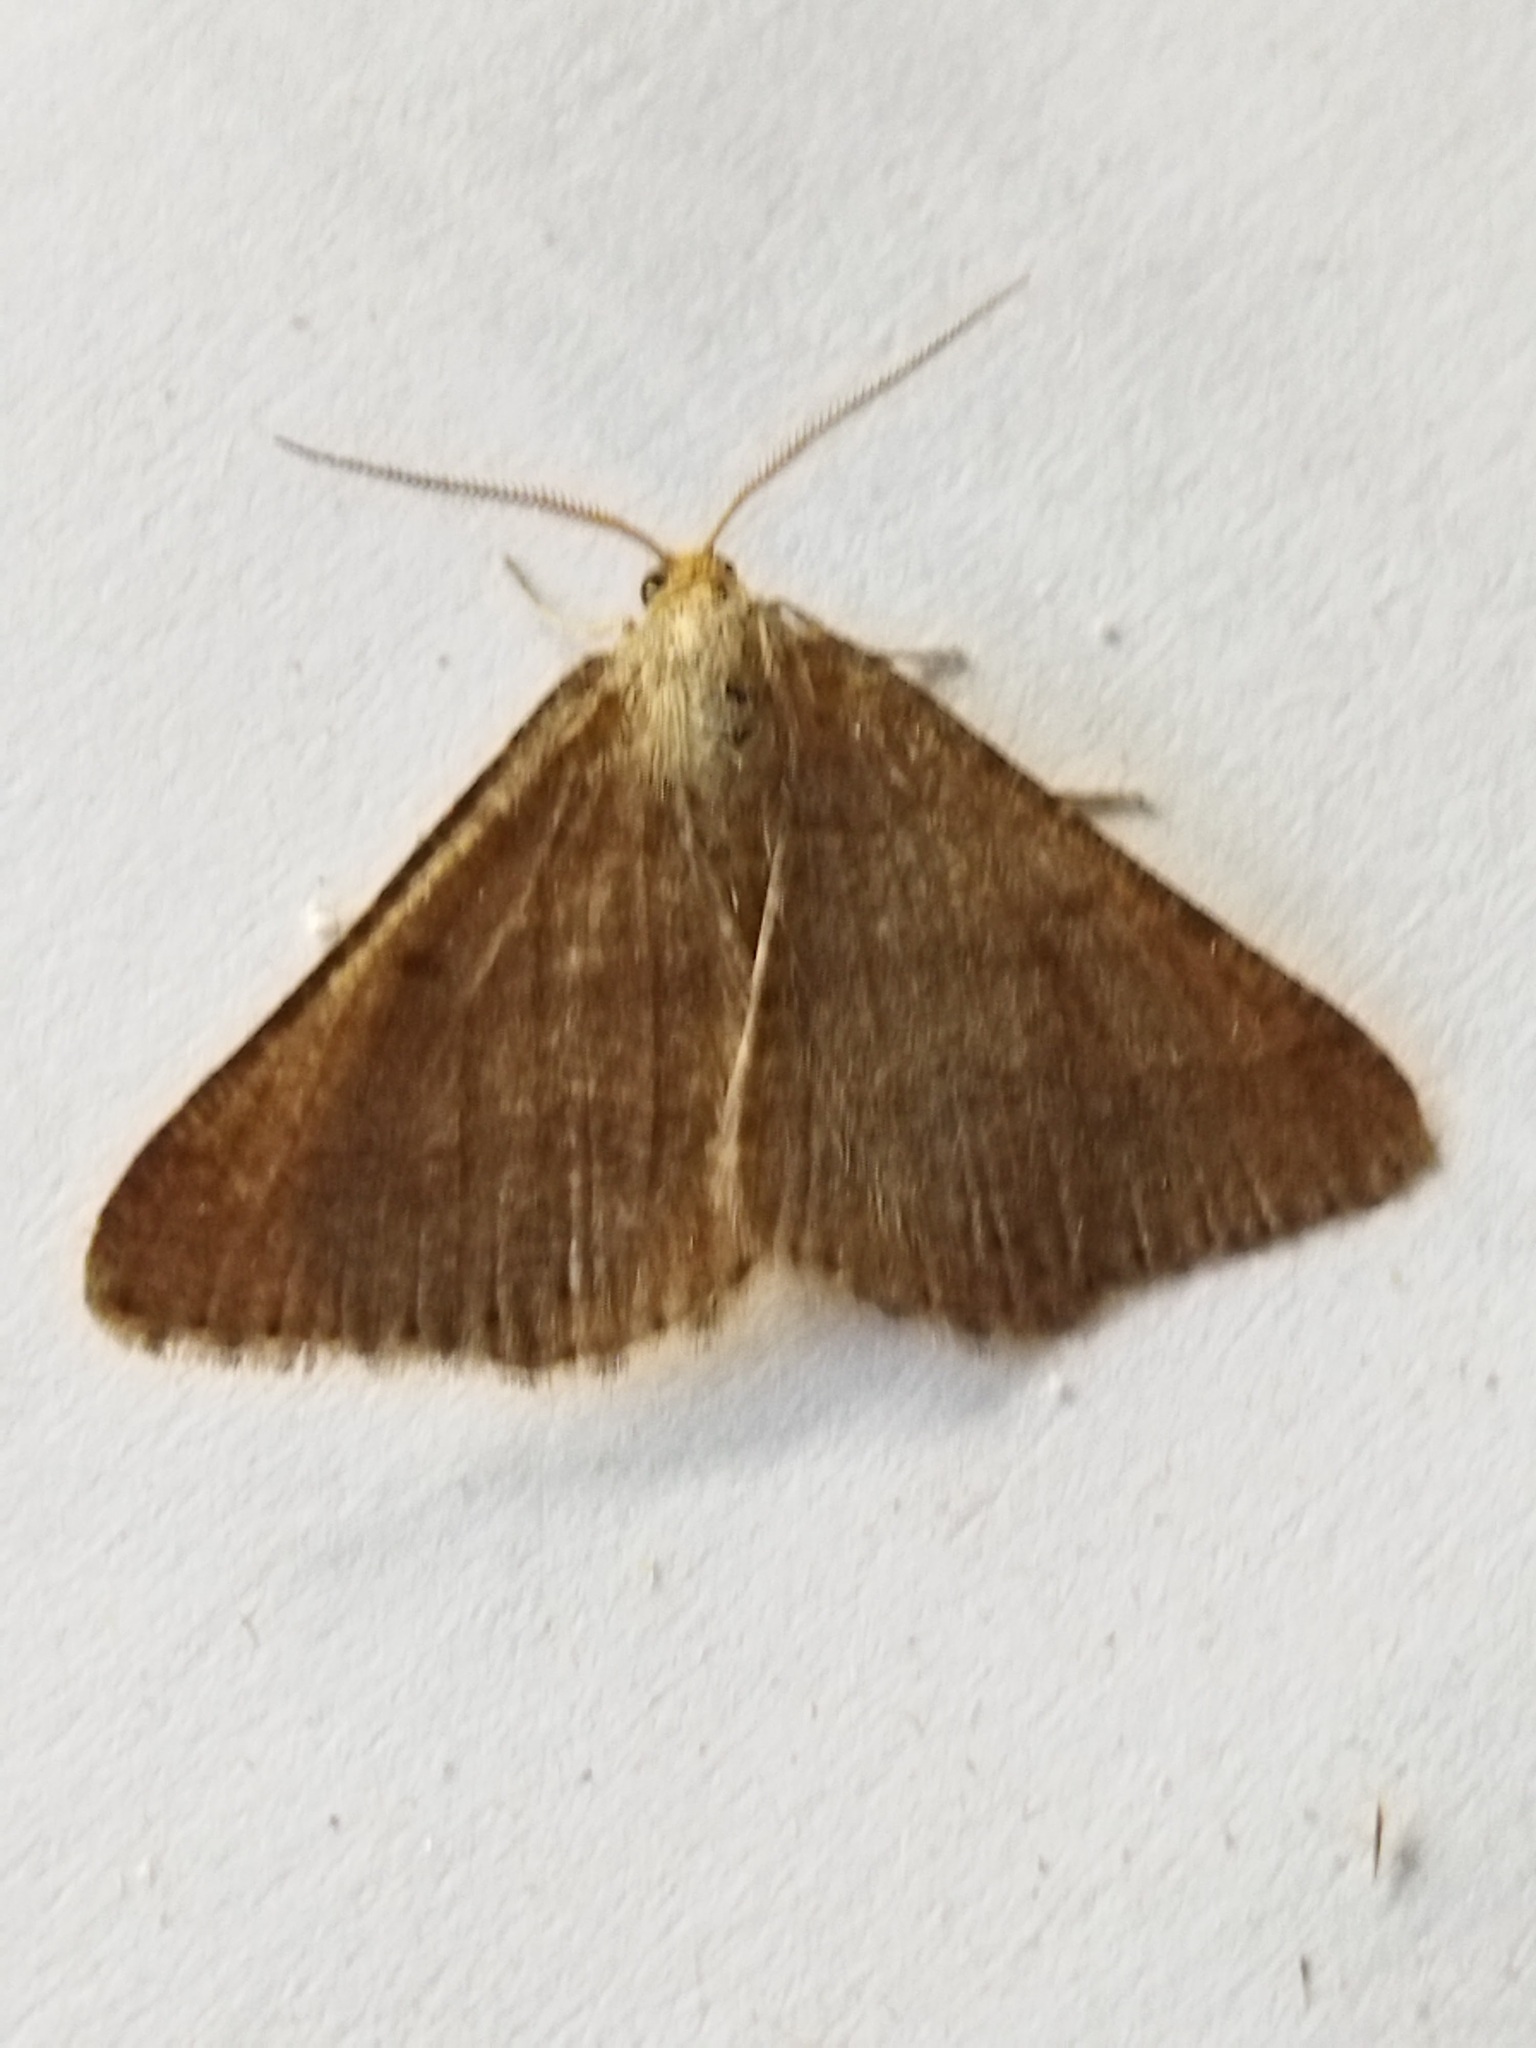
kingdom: Animalia
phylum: Arthropoda
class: Insecta
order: Lepidoptera
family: Geometridae
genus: Tephrina
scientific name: Tephrina murinaria
